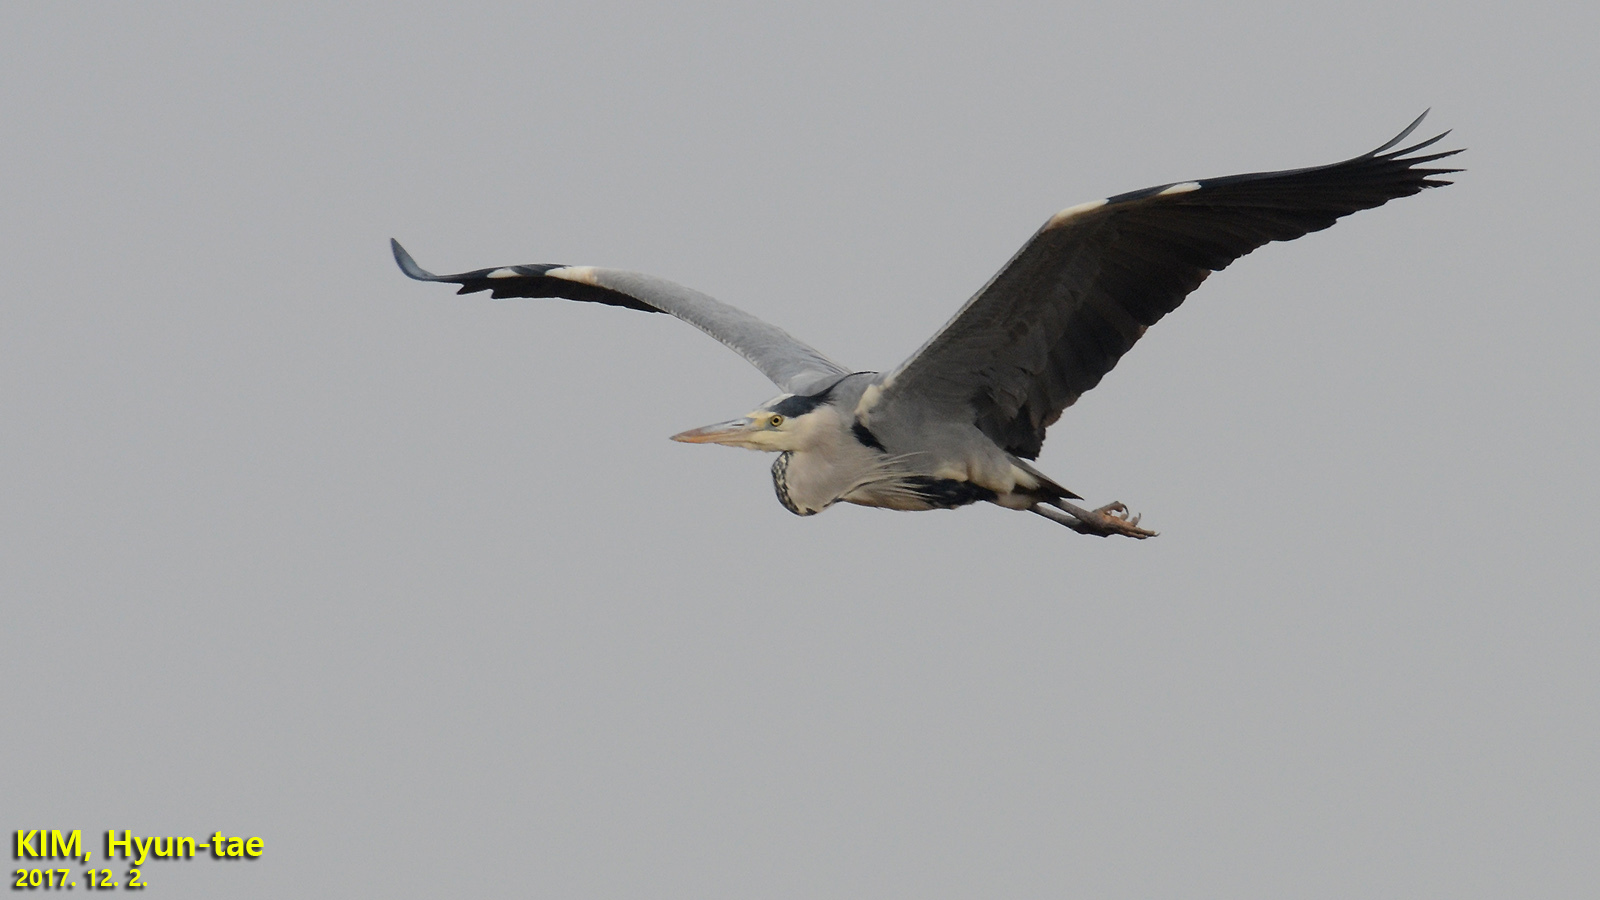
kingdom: Animalia
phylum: Chordata
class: Aves
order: Pelecaniformes
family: Ardeidae
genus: Ardea
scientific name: Ardea cinerea
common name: Grey heron
